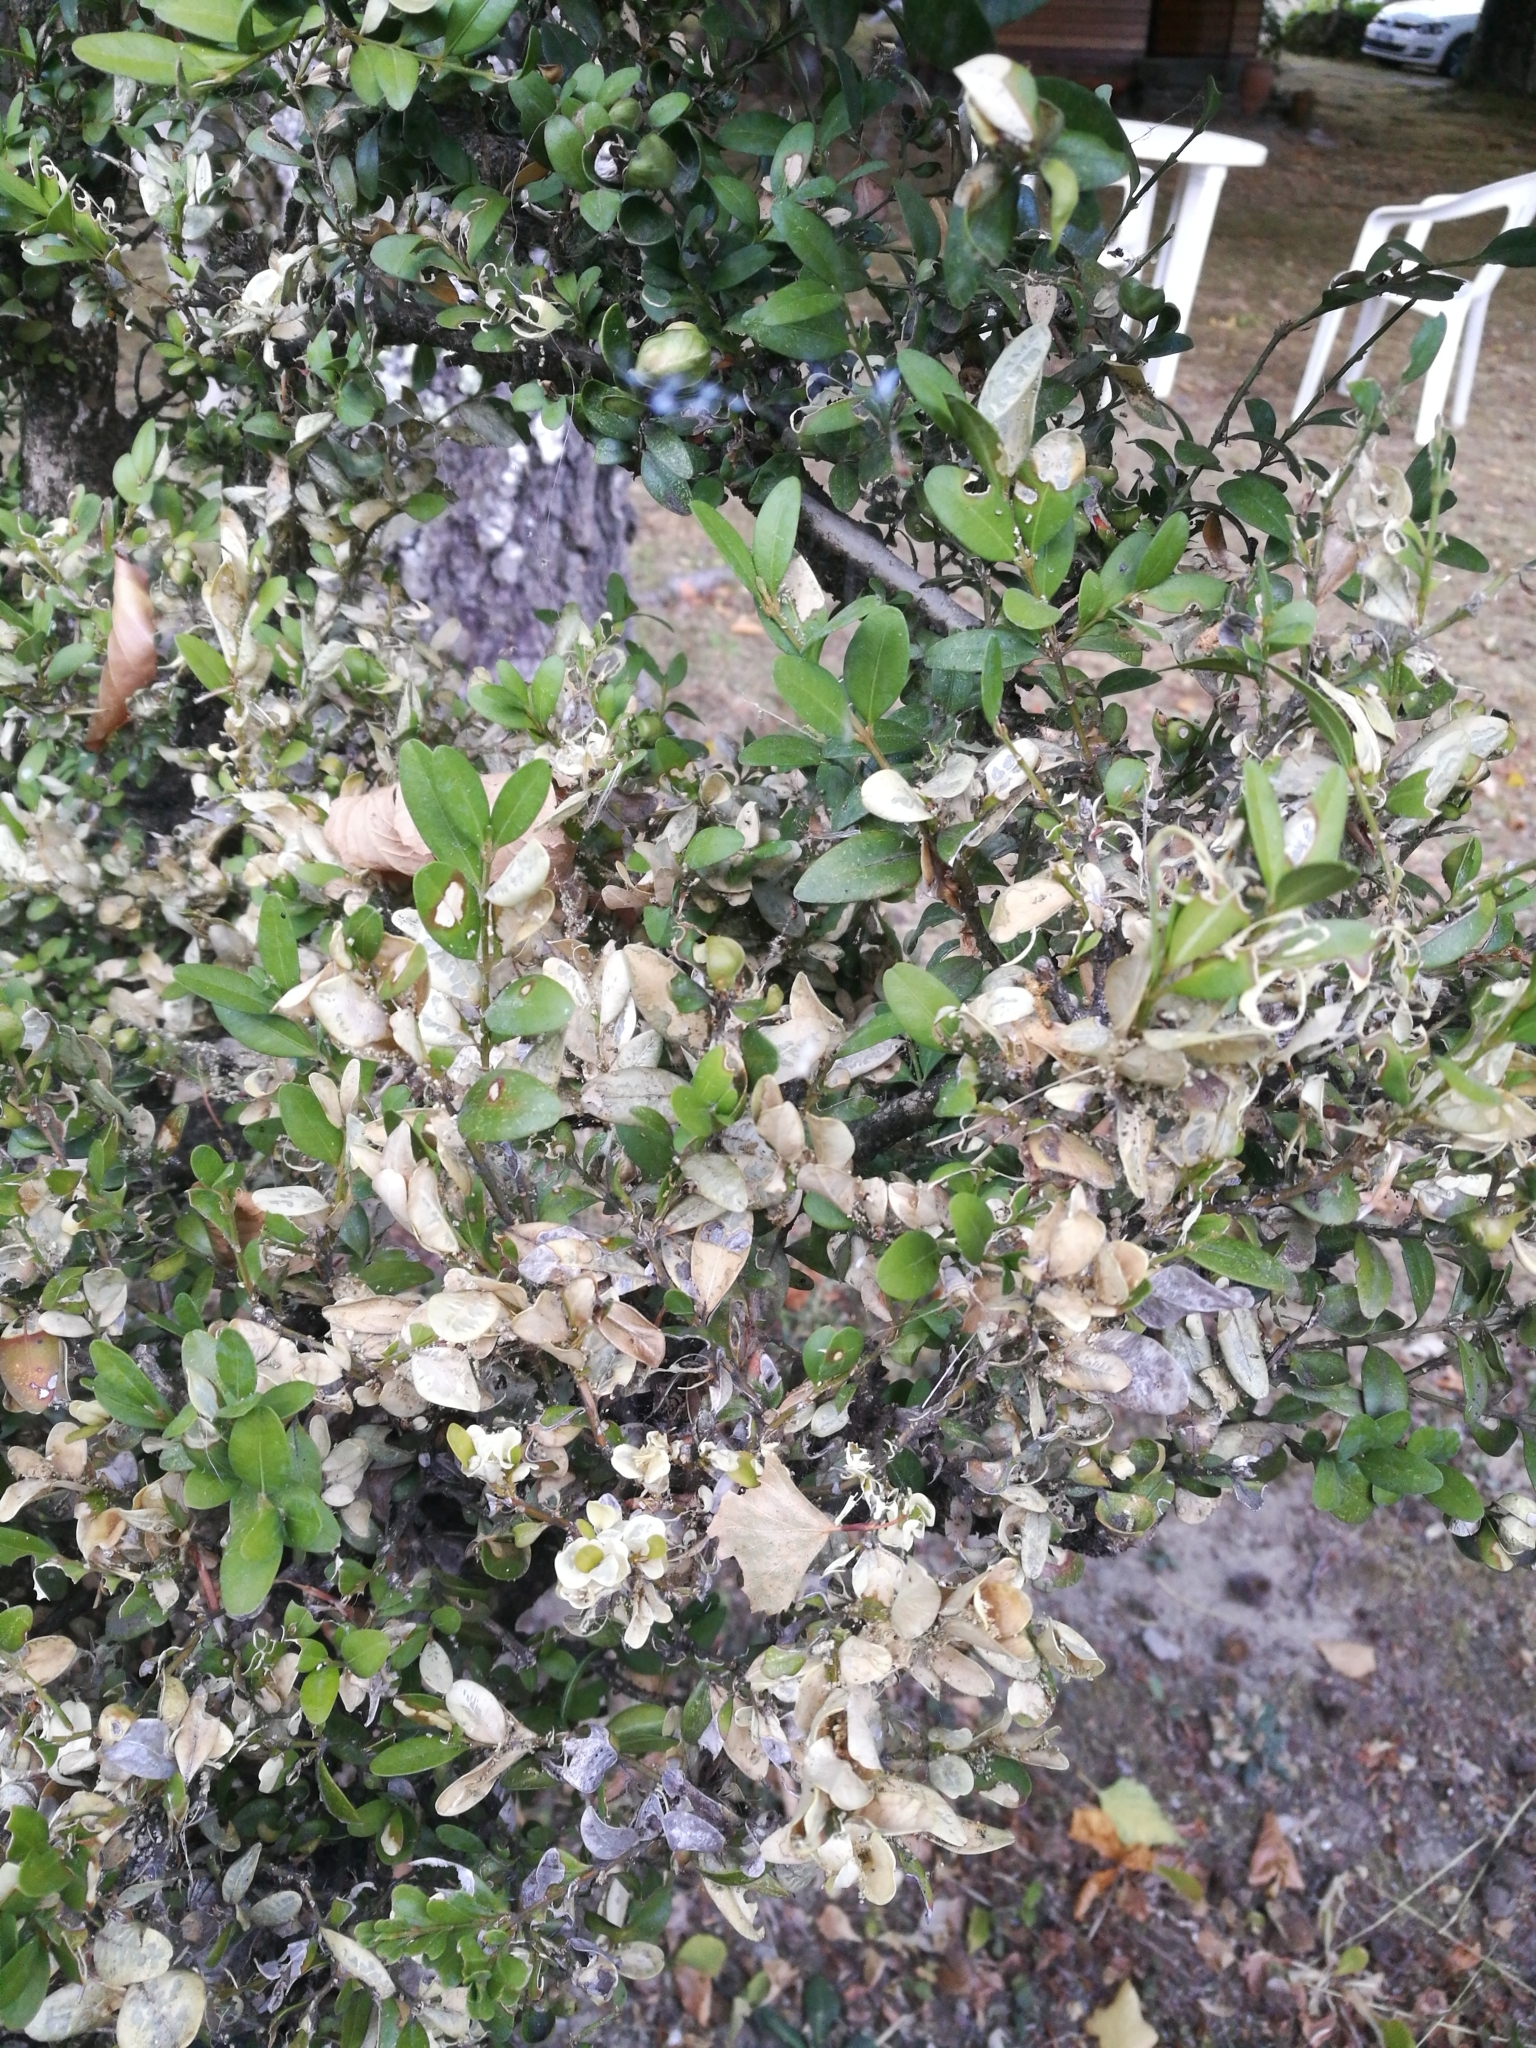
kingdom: Animalia
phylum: Arthropoda
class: Insecta
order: Lepidoptera
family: Crambidae
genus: Cydalima
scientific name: Cydalima perspectalis
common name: Box tree moth
